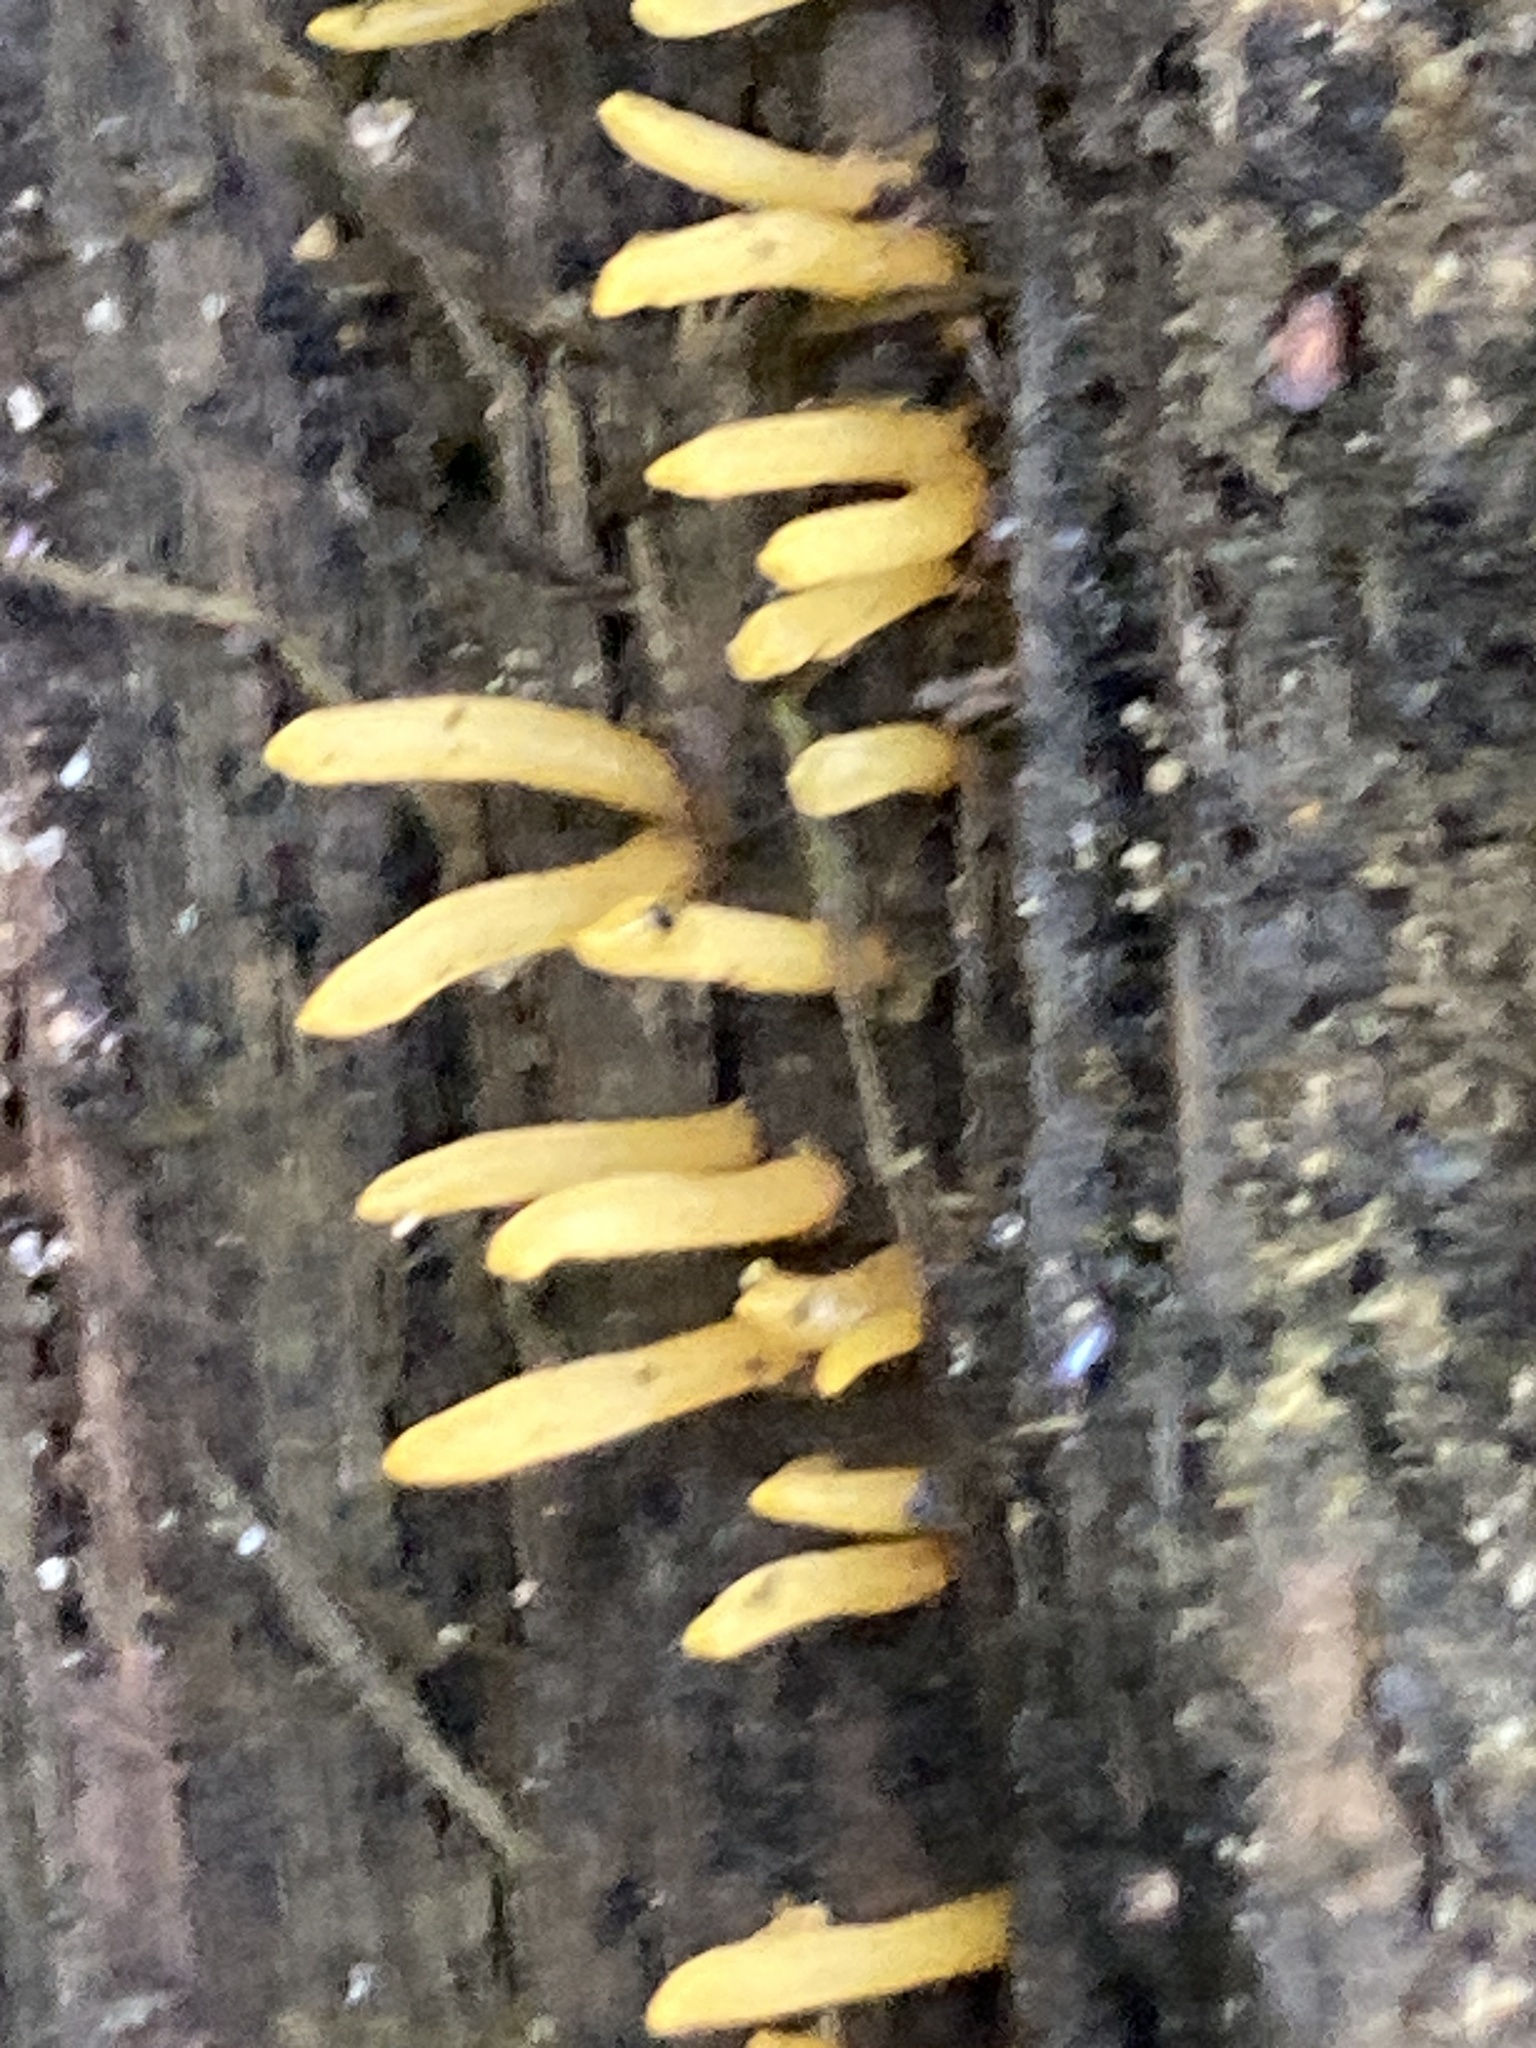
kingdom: Fungi
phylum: Basidiomycota
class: Dacrymycetes
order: Dacrymycetales
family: Dacrymycetaceae
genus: Calocera
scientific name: Calocera cornea
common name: Small stagshorn
